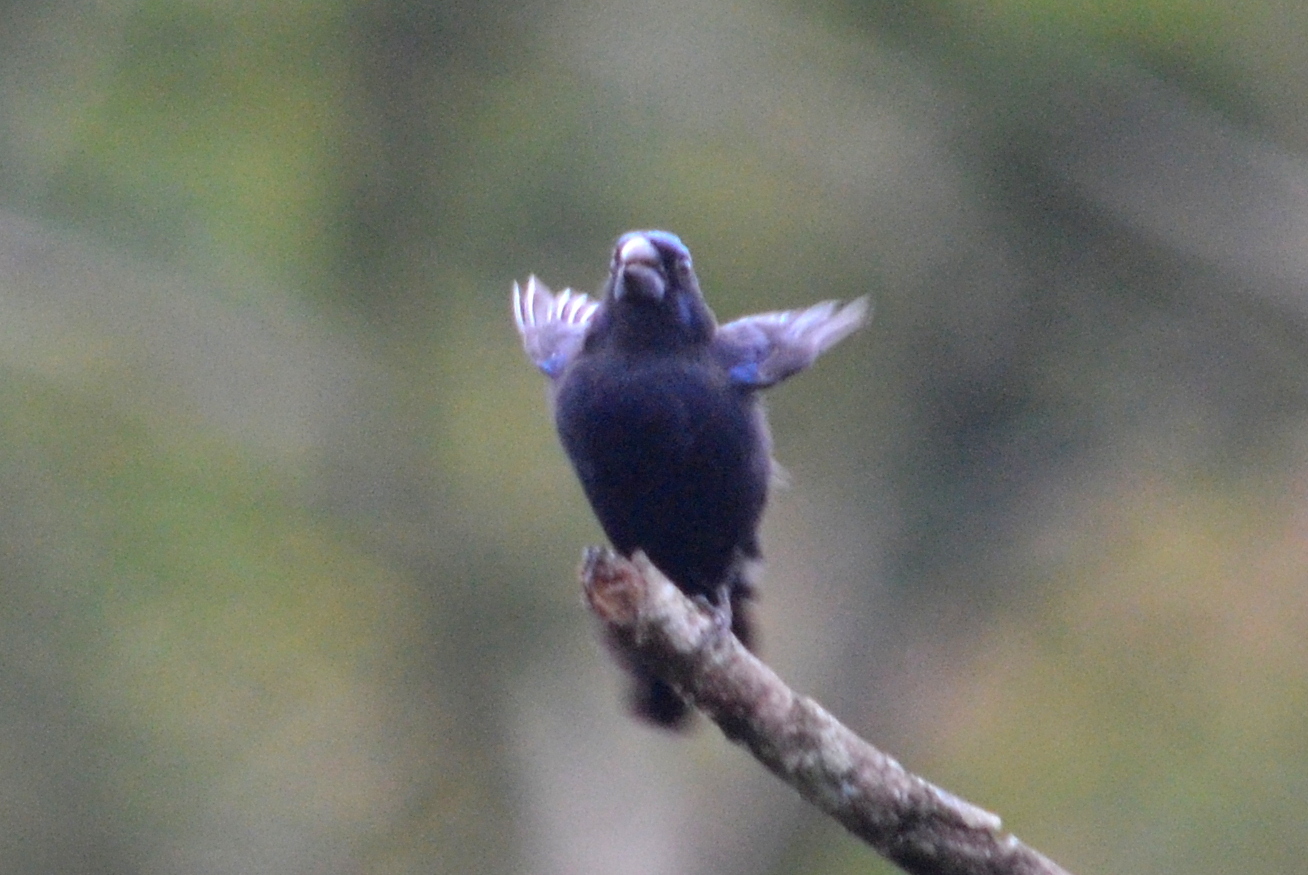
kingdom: Animalia
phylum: Chordata
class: Aves
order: Passeriformes
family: Cardinalidae
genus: Cyanoloxia
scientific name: Cyanoloxia brissonii
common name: Ultramarine grosbeak
